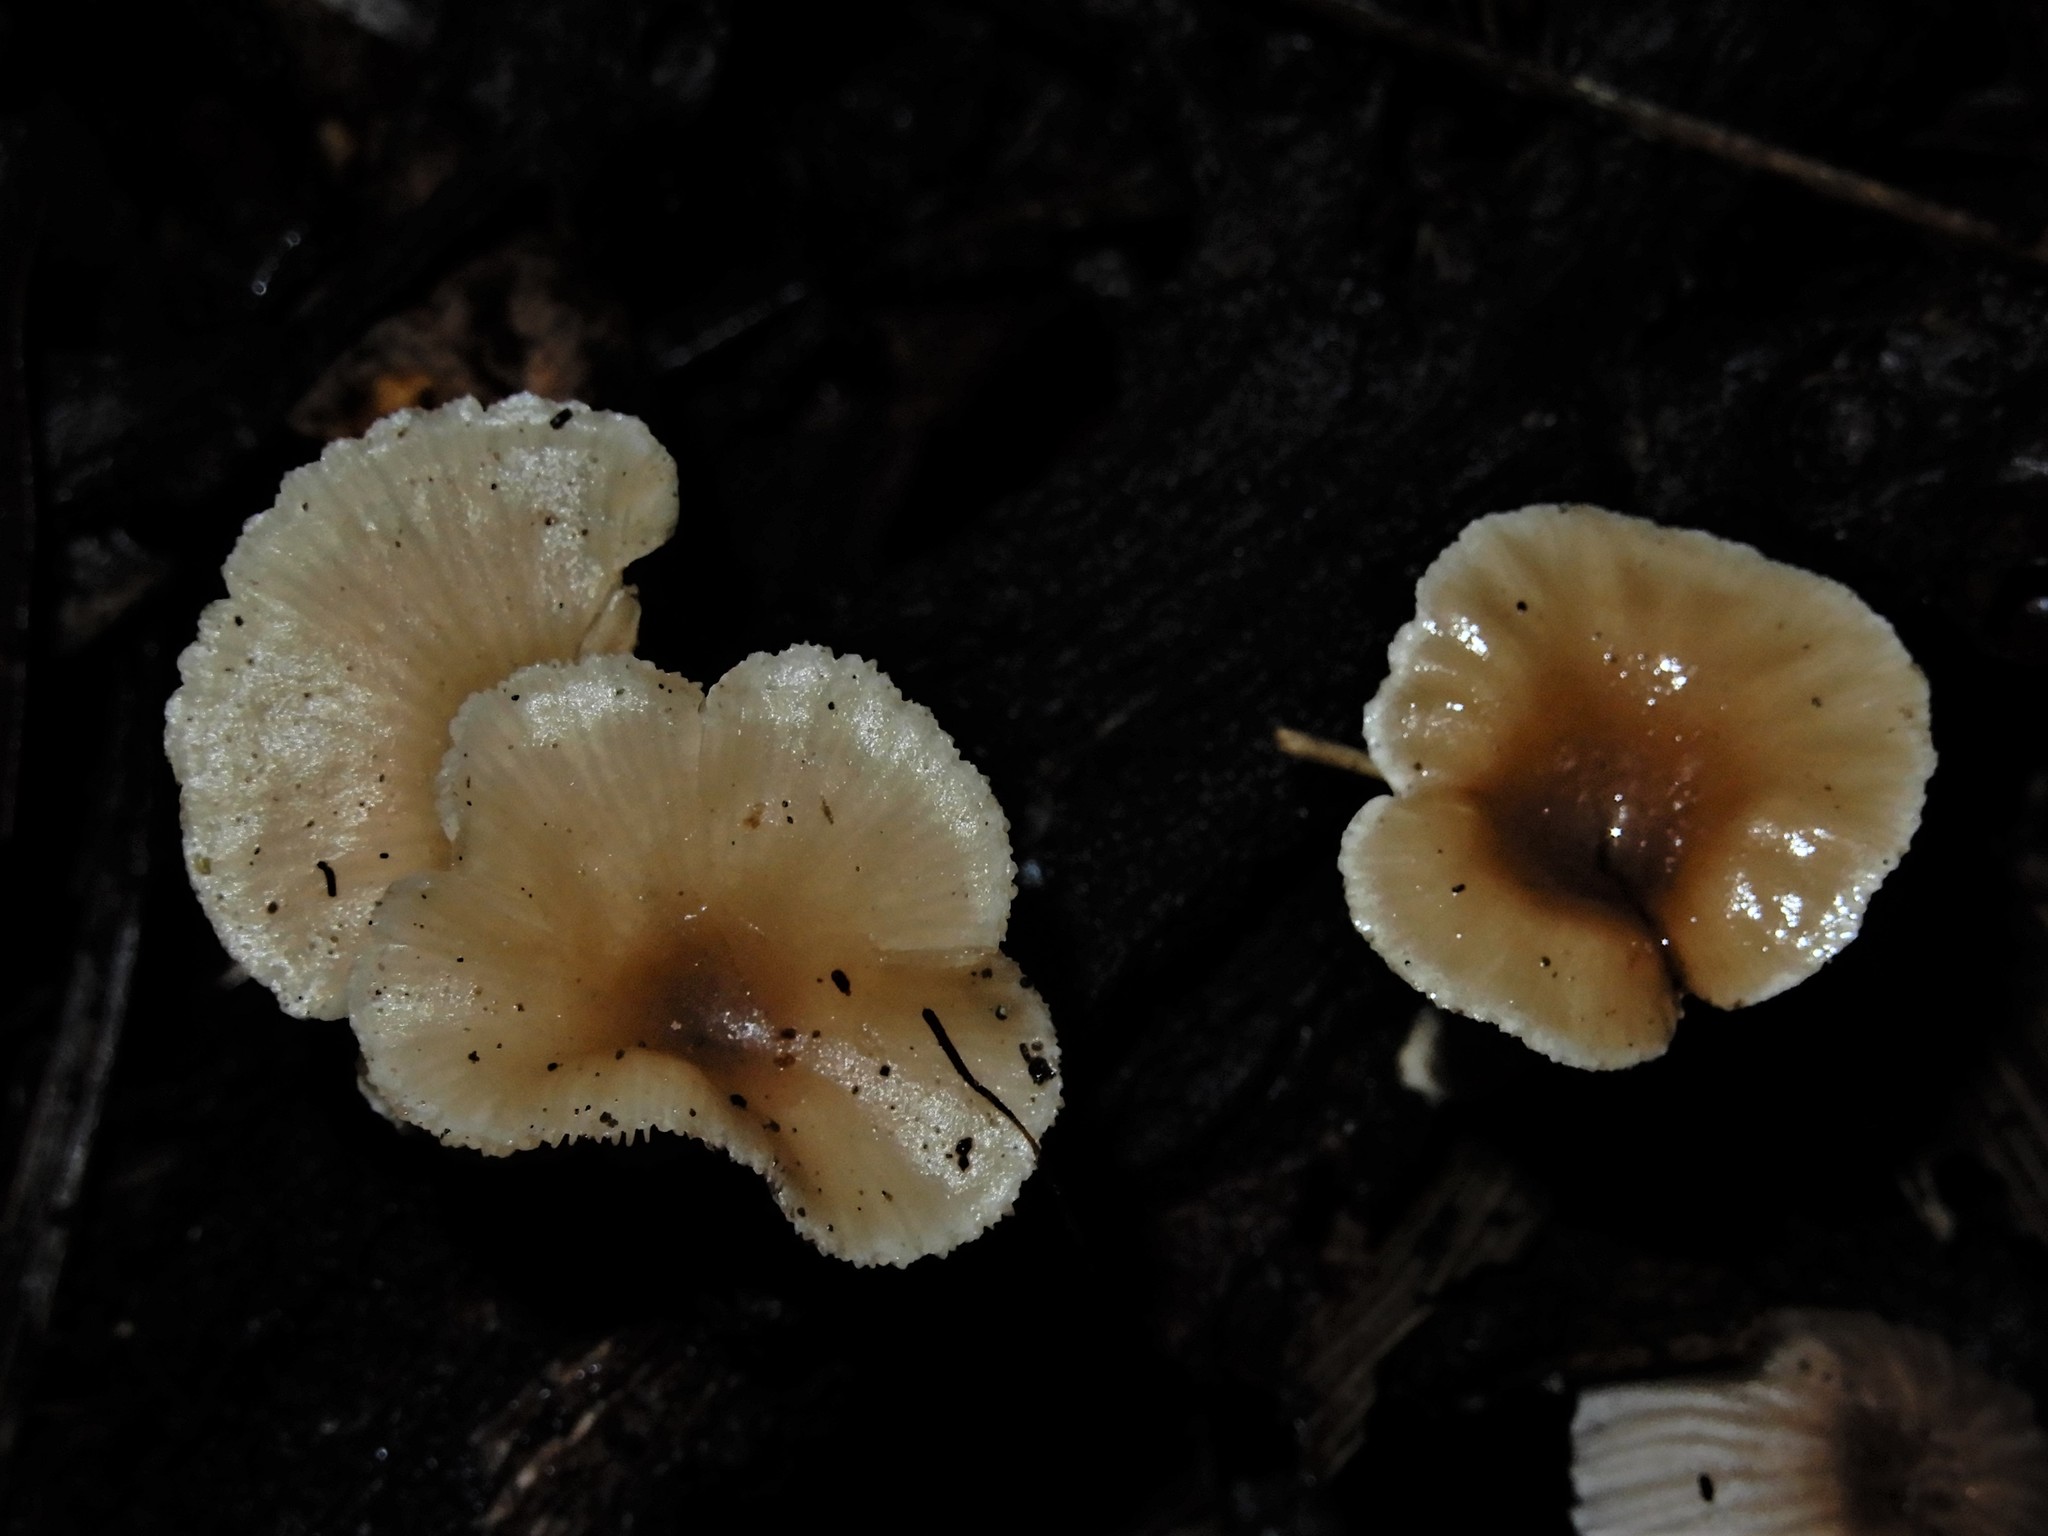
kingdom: Fungi
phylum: Basidiomycota
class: Agaricomycetes
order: Agaricales
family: Tricholomataceae
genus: Clitocybe
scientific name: Clitocybe wellingtonensis
